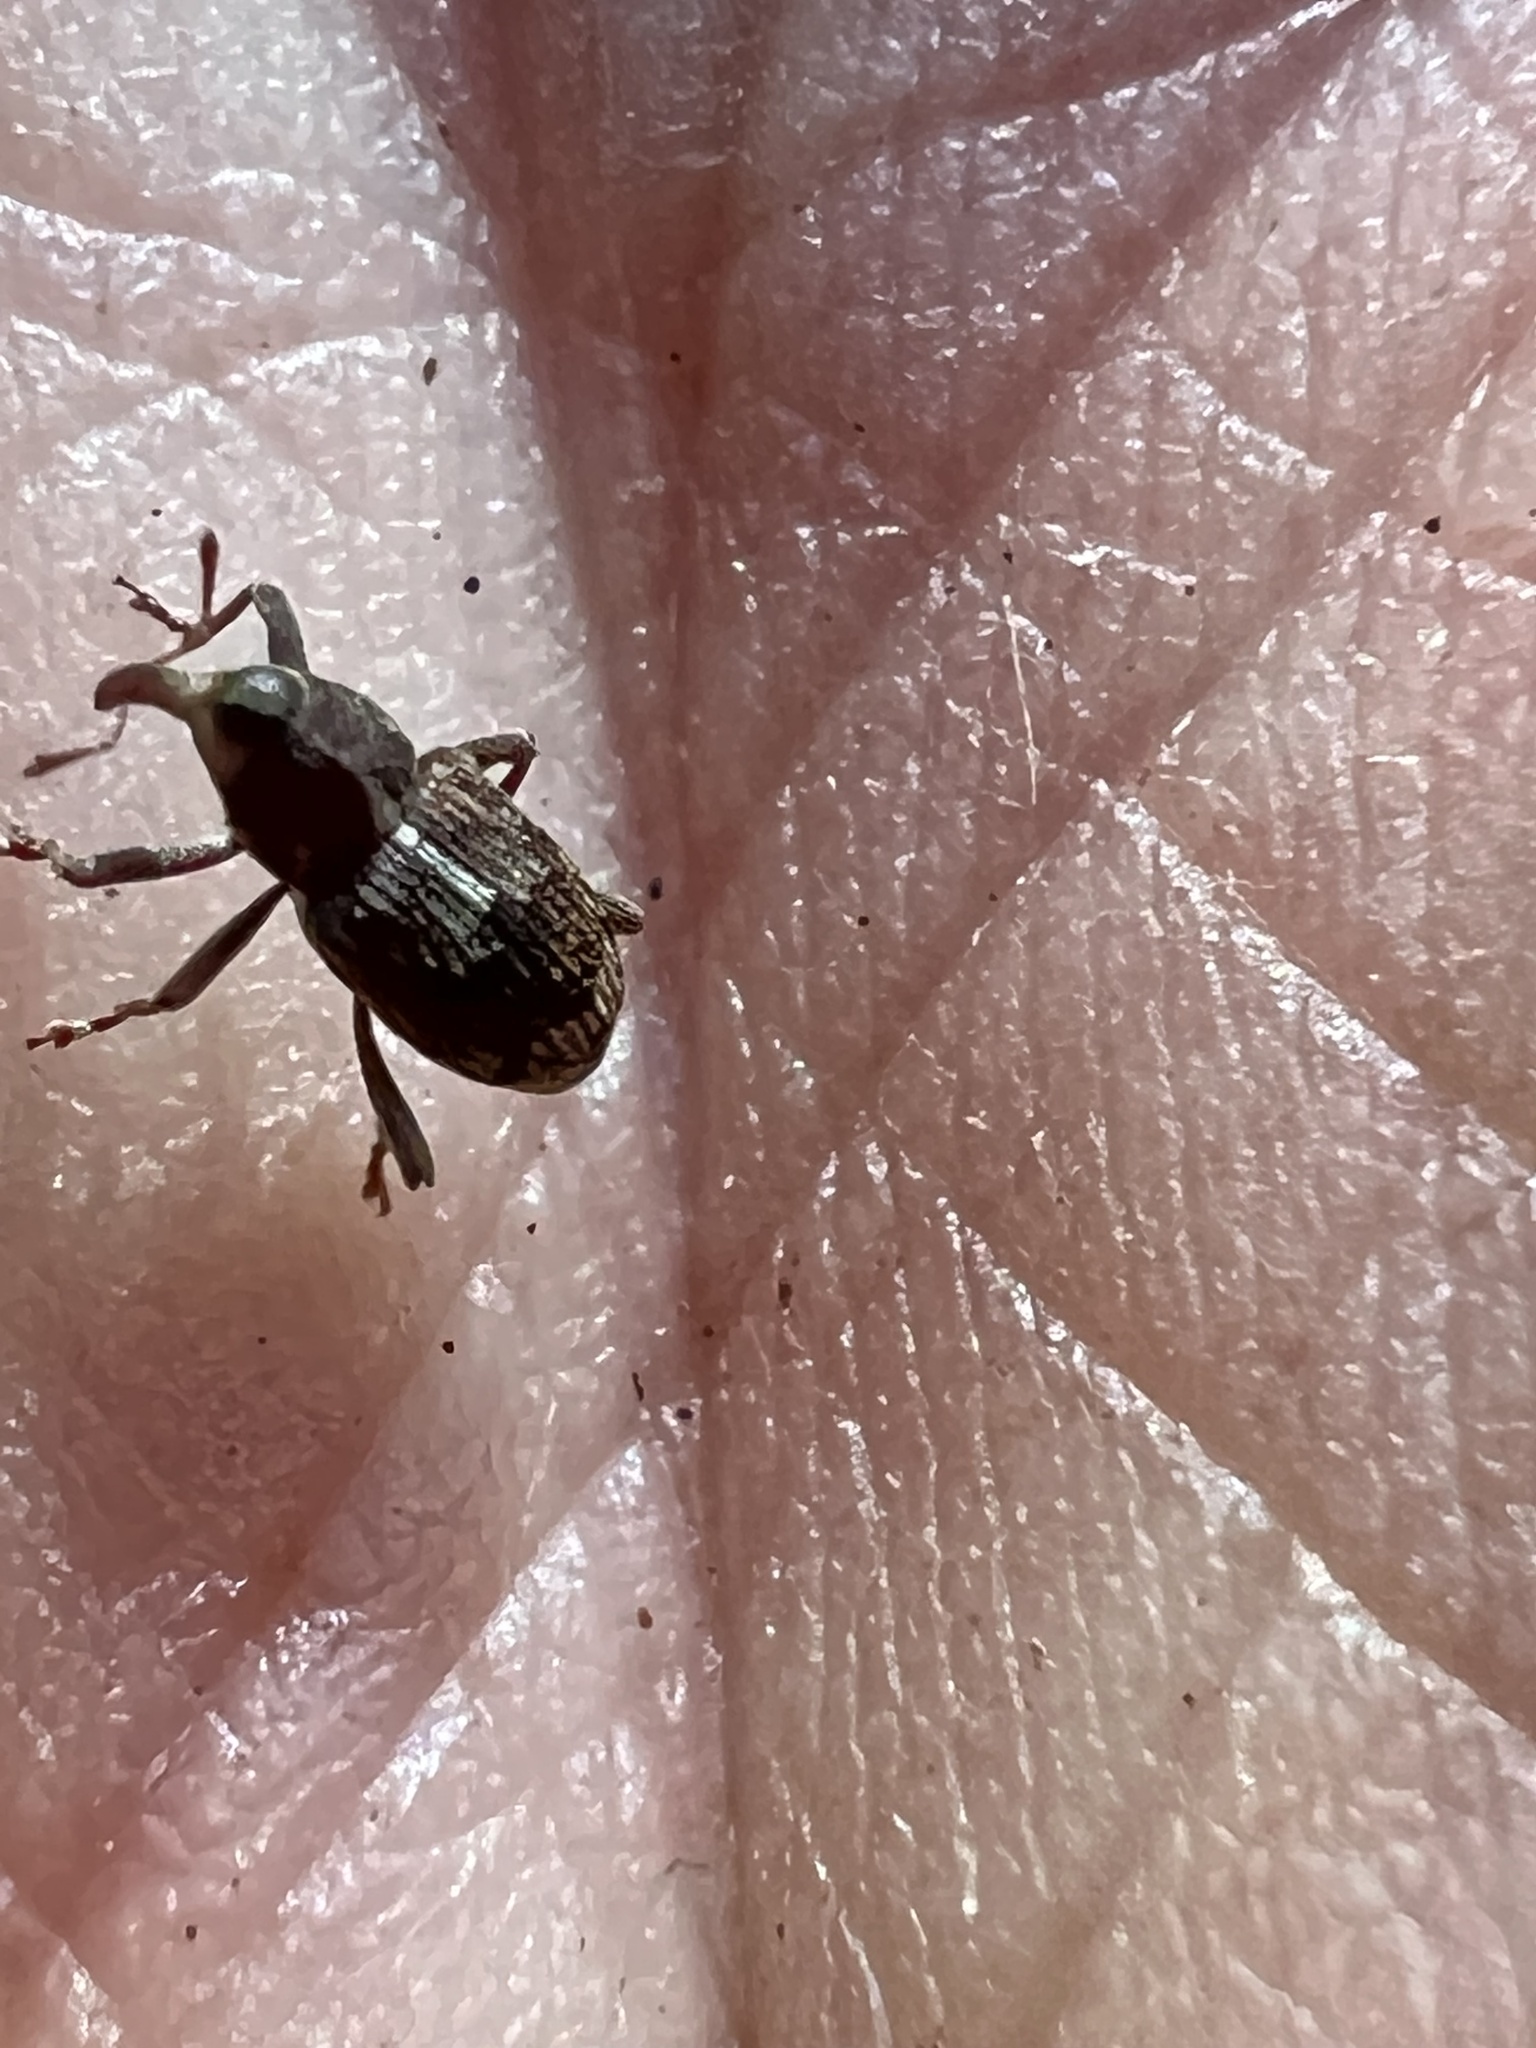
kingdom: Animalia
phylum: Arthropoda
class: Insecta
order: Coleoptera
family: Curculionidae
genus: Acoptus
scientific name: Acoptus suturalis
